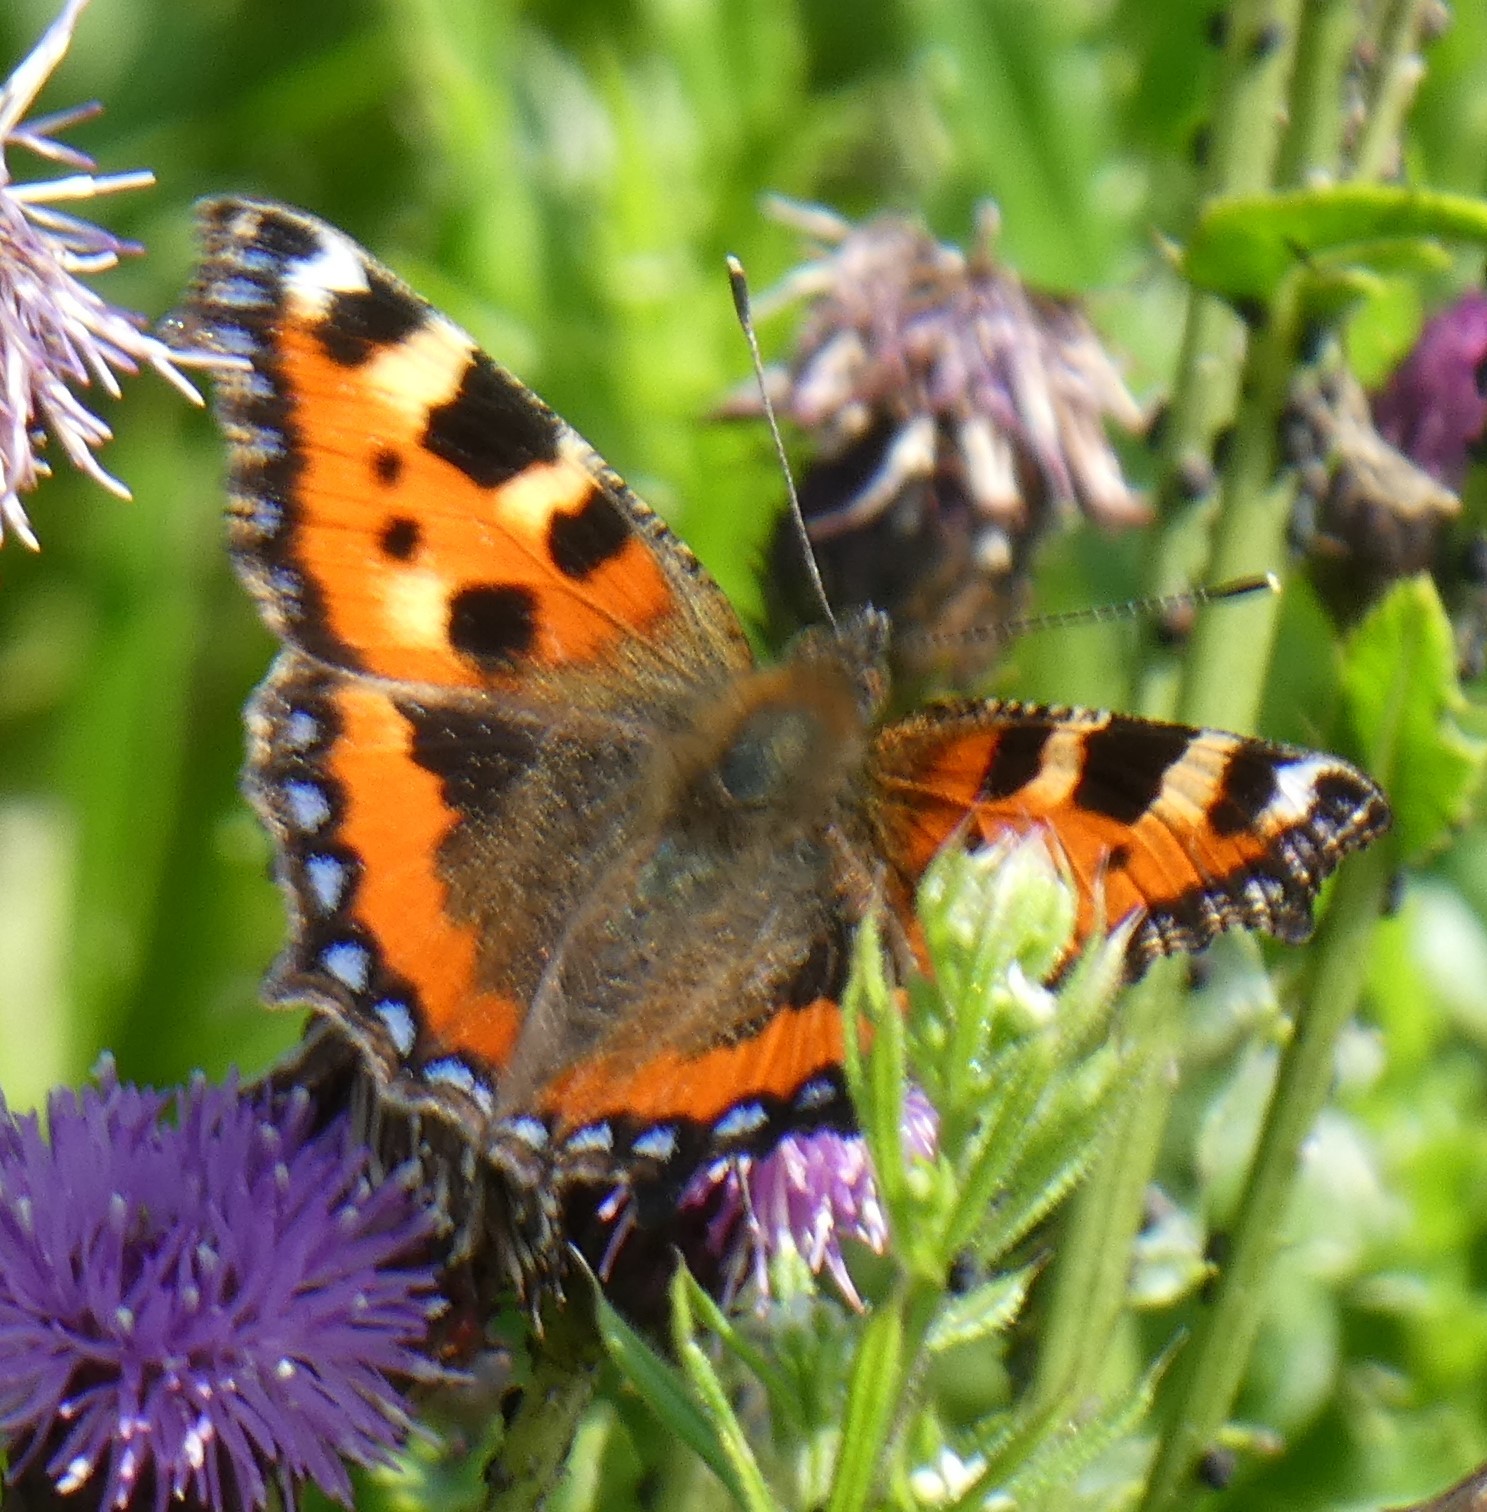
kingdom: Animalia
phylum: Arthropoda
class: Insecta
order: Lepidoptera
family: Nymphalidae
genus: Aglais
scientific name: Aglais urticae
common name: Small tortoiseshell
